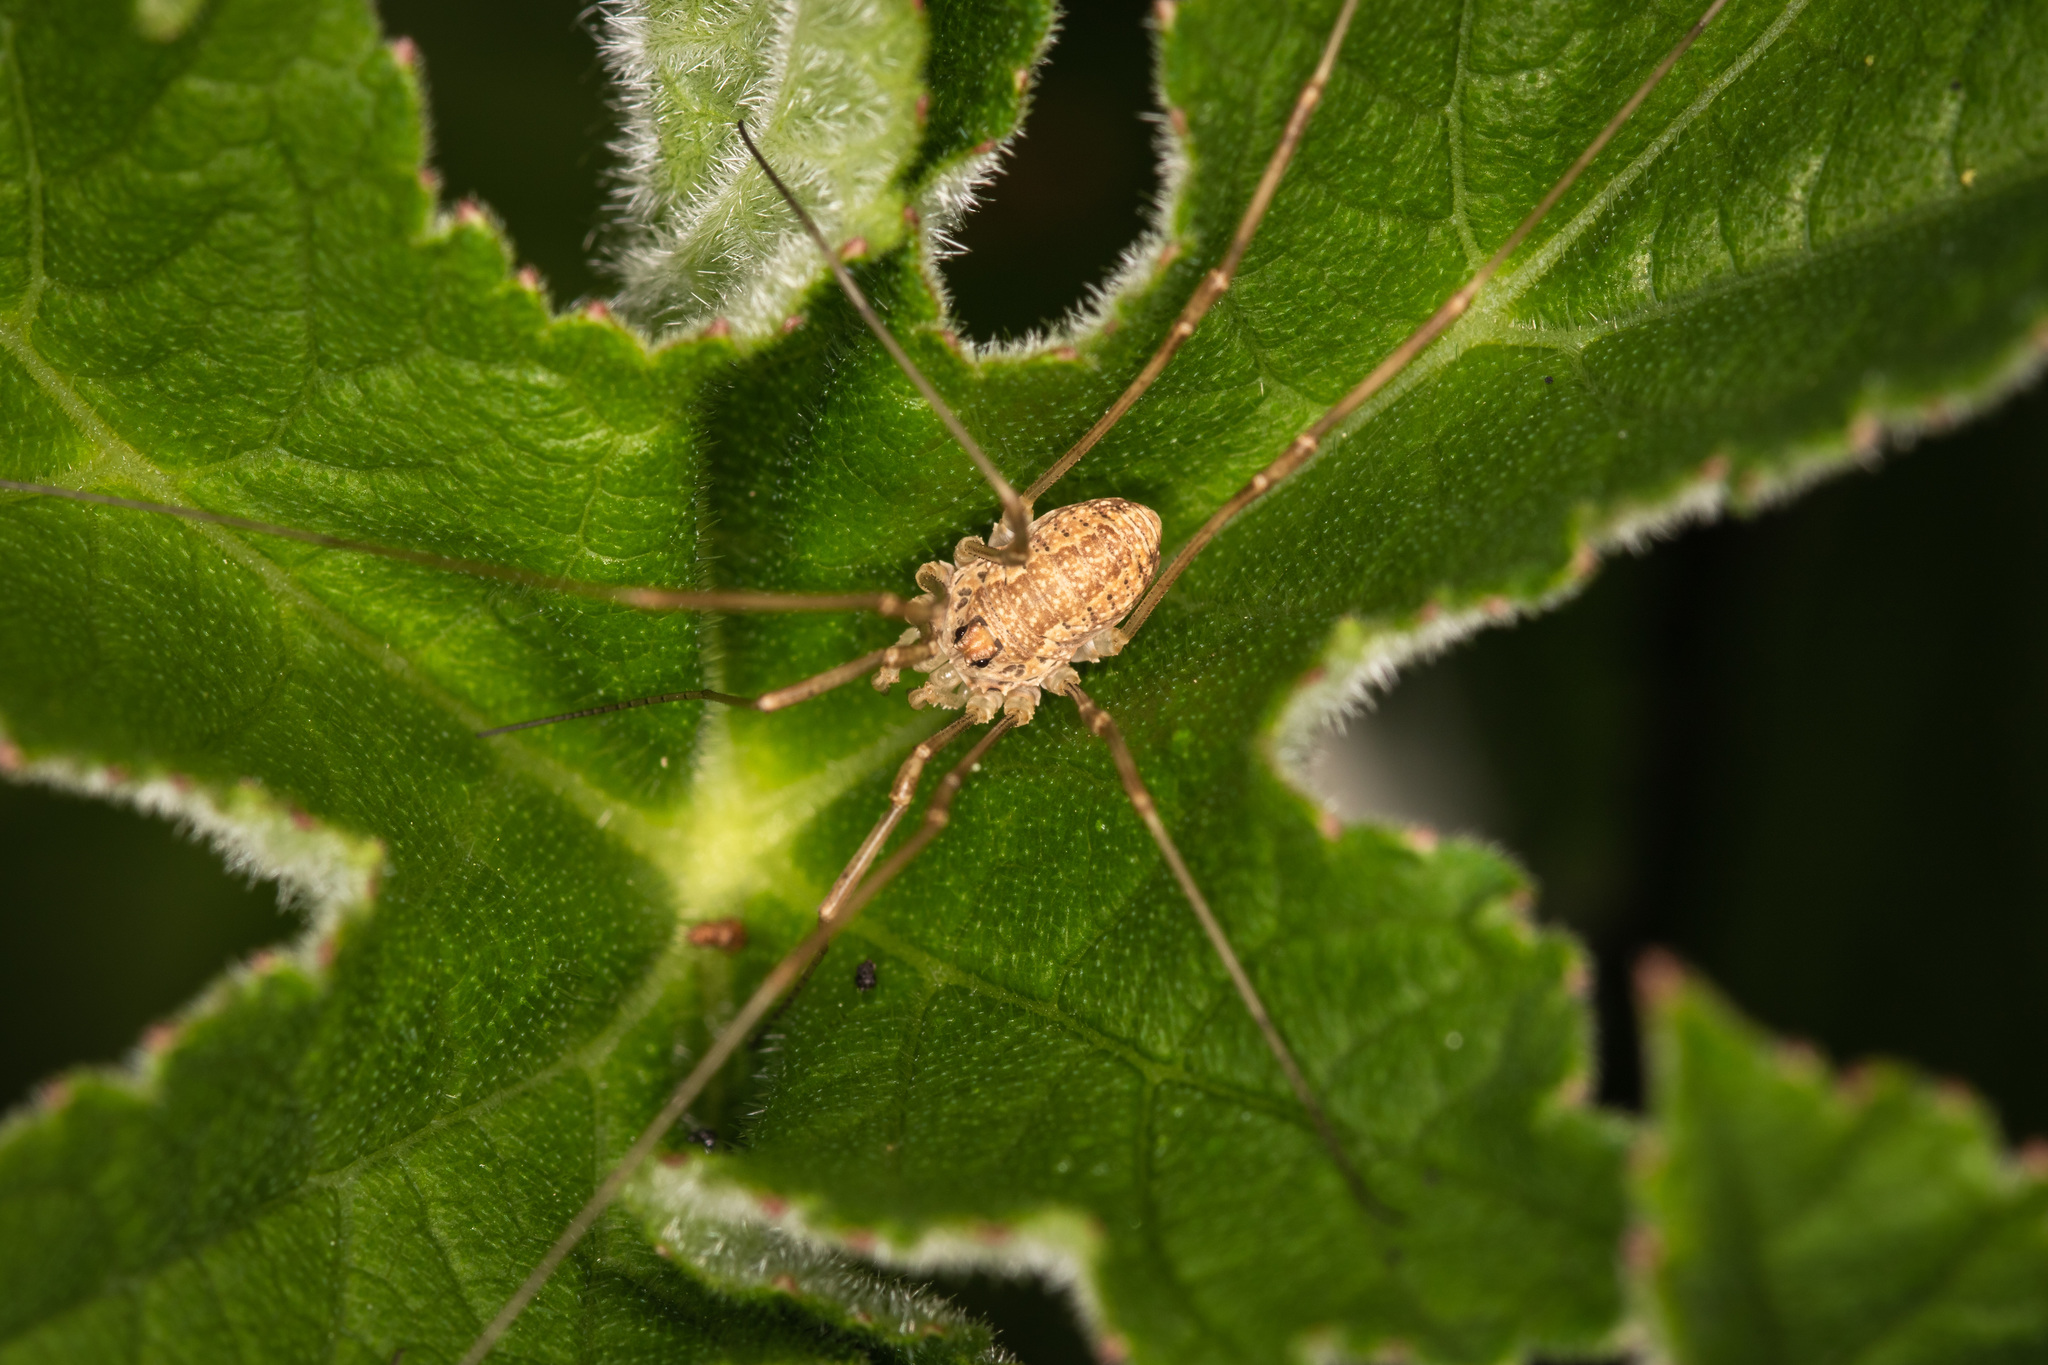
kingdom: Animalia
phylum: Arthropoda
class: Arachnida
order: Opiliones
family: Phalangiidae
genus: Rilaena
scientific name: Rilaena triangularis
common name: Spring harvestman
